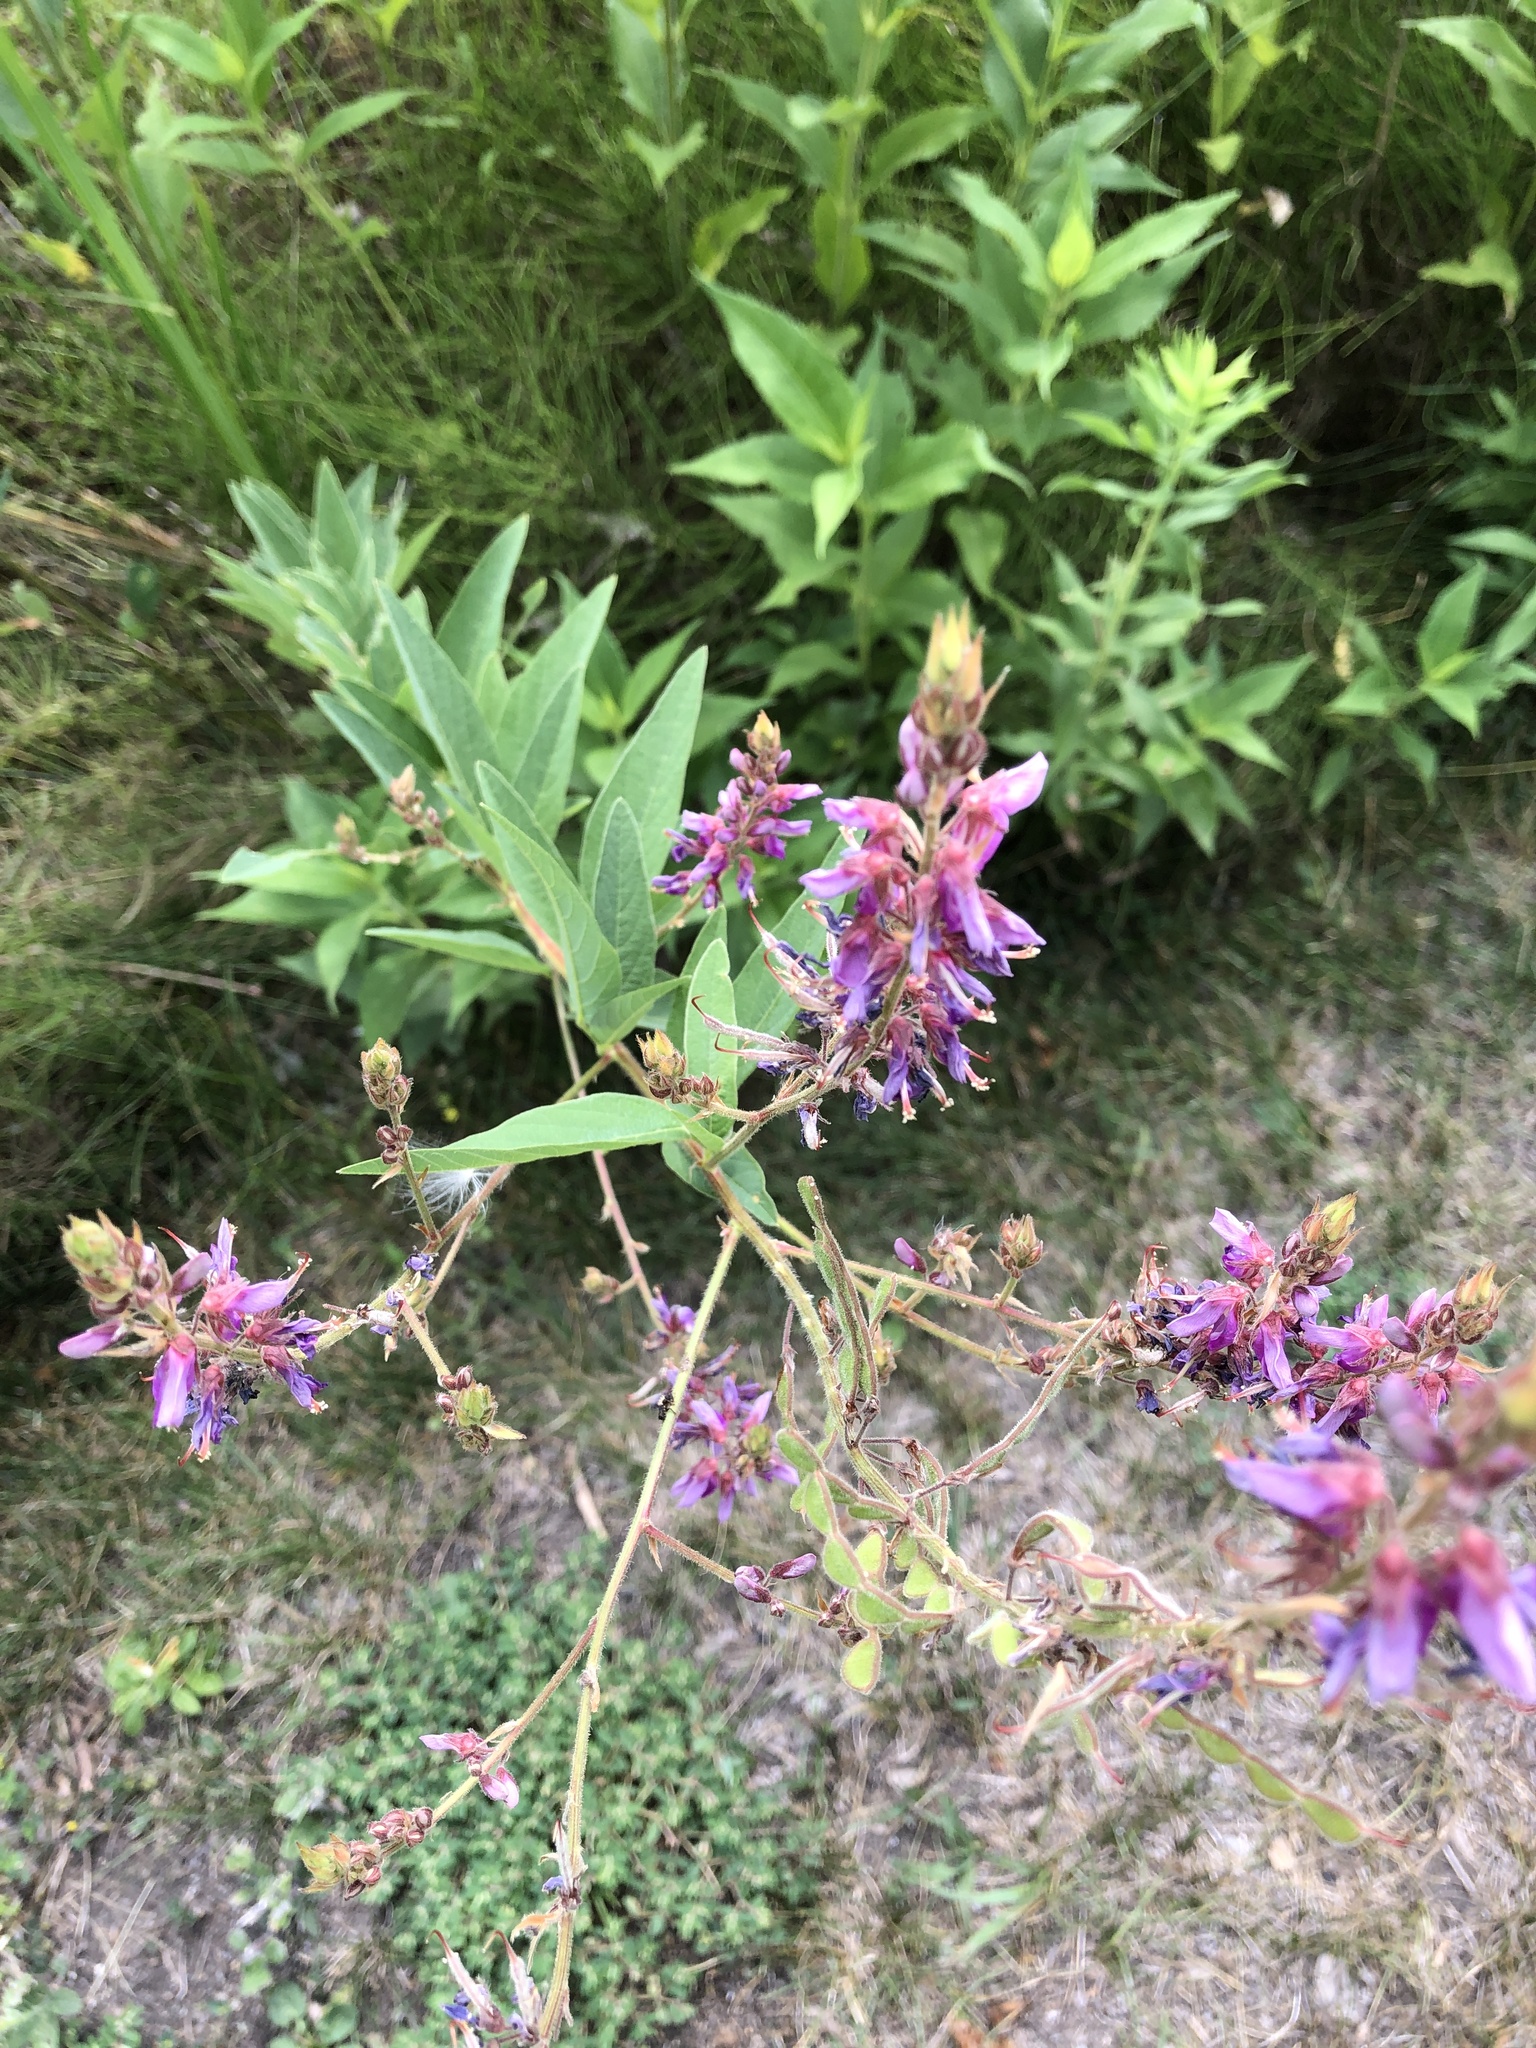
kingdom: Plantae
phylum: Tracheophyta
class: Magnoliopsida
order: Fabales
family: Fabaceae
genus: Desmodium
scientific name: Desmodium canadense
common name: Canada tick-trefoil
